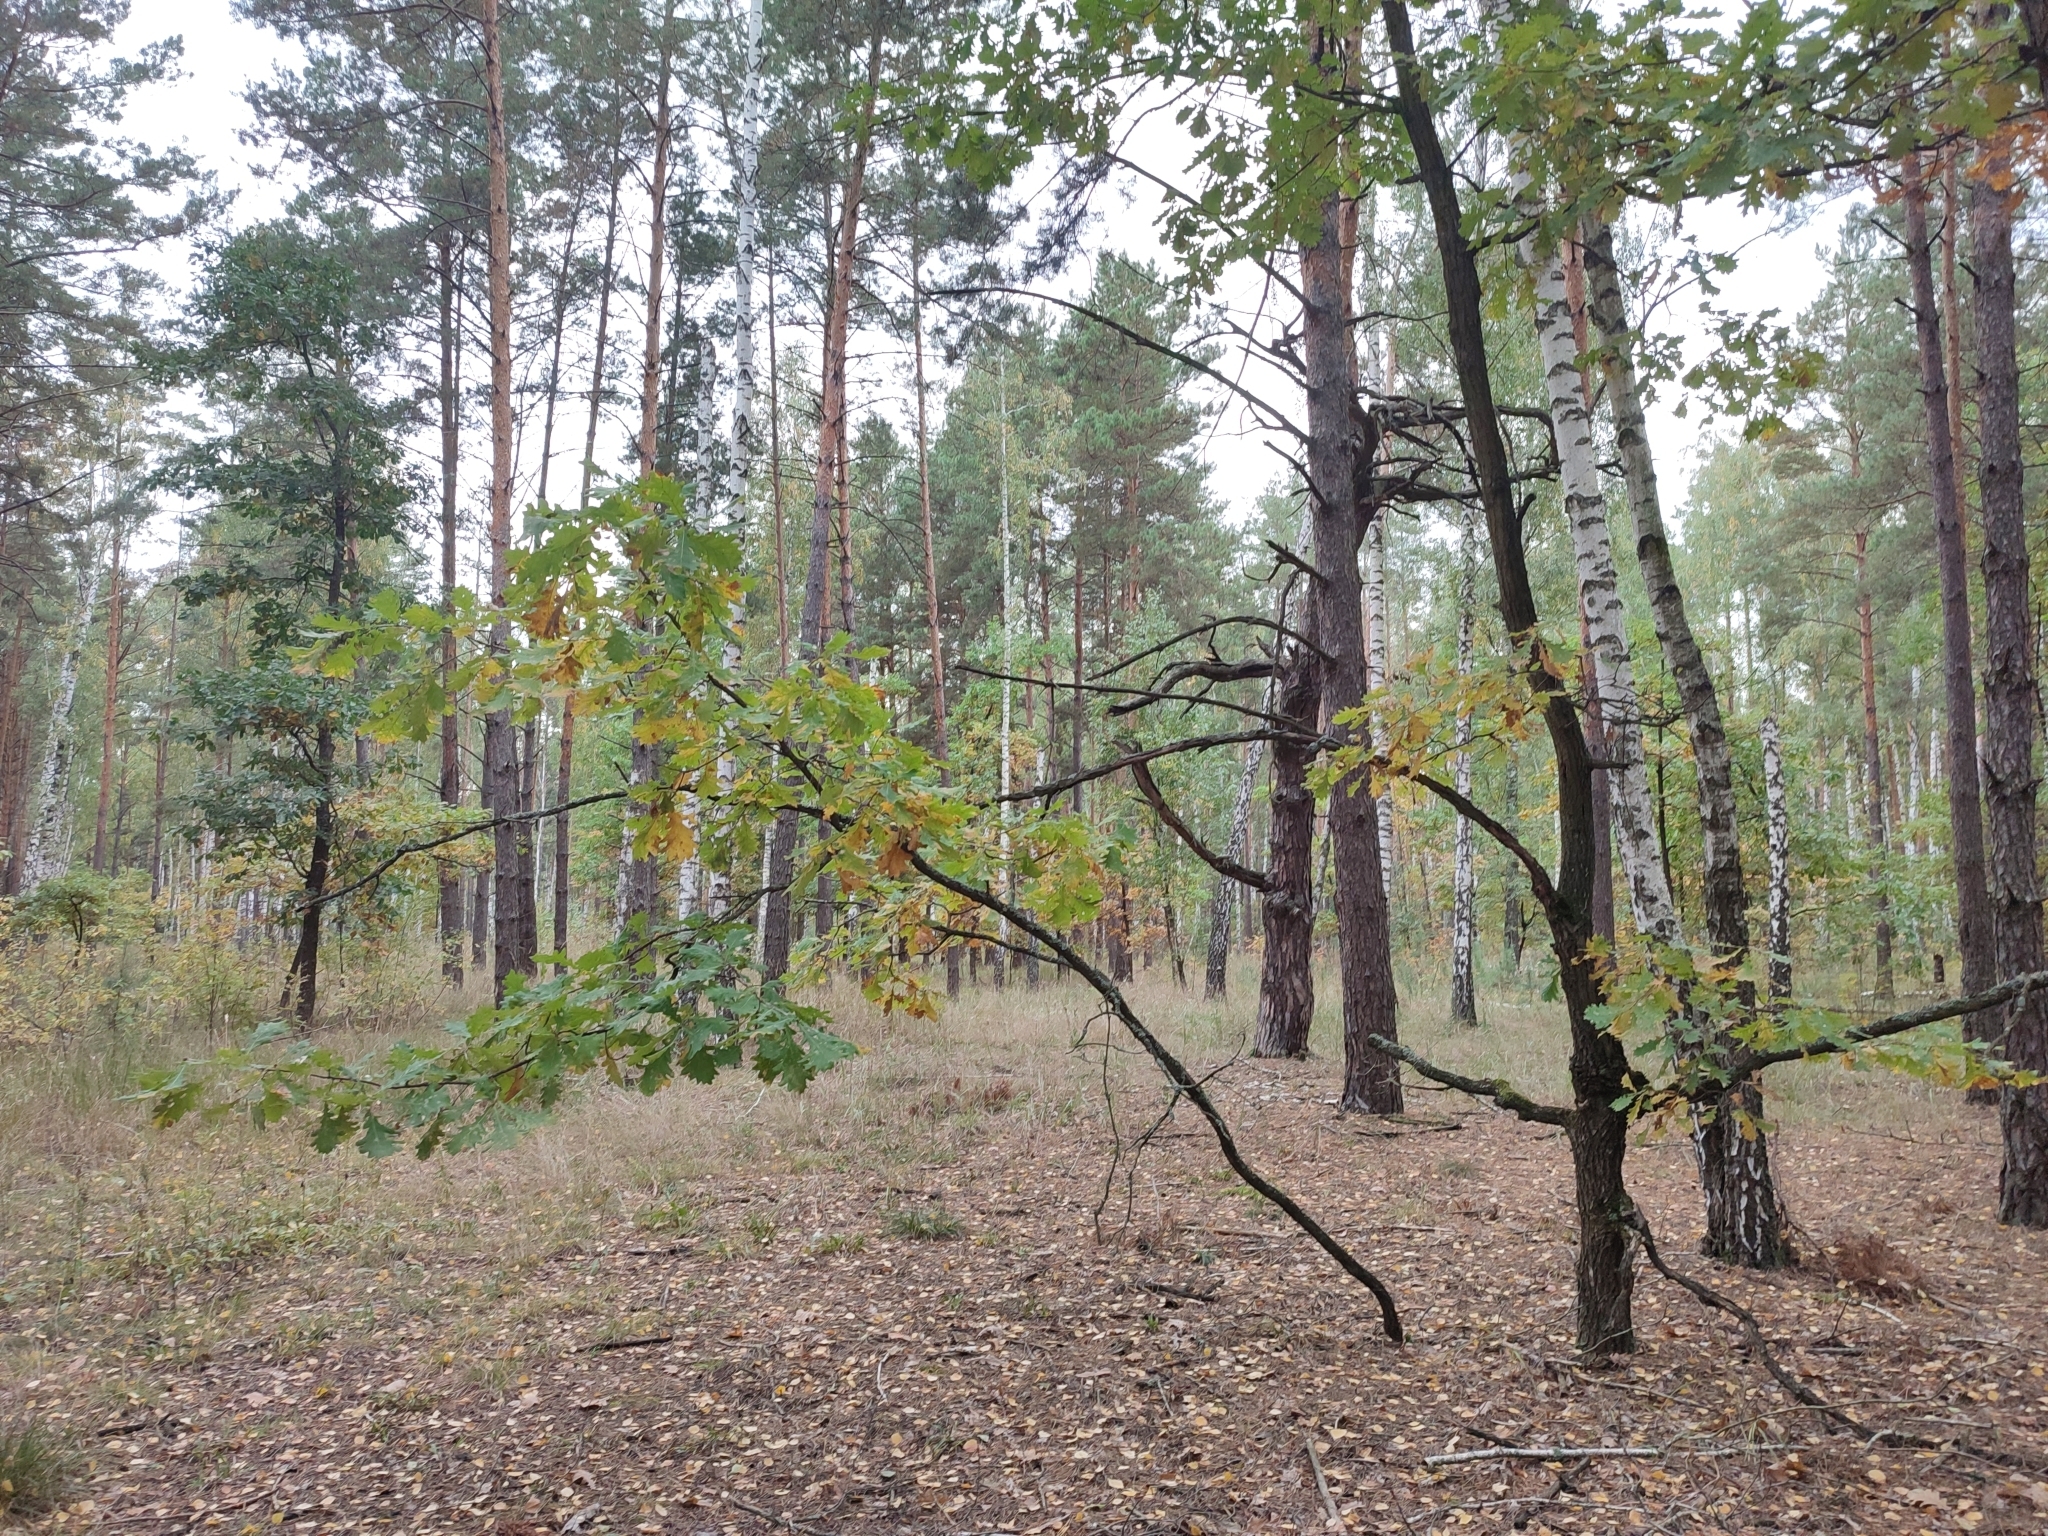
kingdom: Plantae
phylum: Tracheophyta
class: Magnoliopsida
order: Fagales
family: Fagaceae
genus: Quercus
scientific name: Quercus robur
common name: Pedunculate oak
